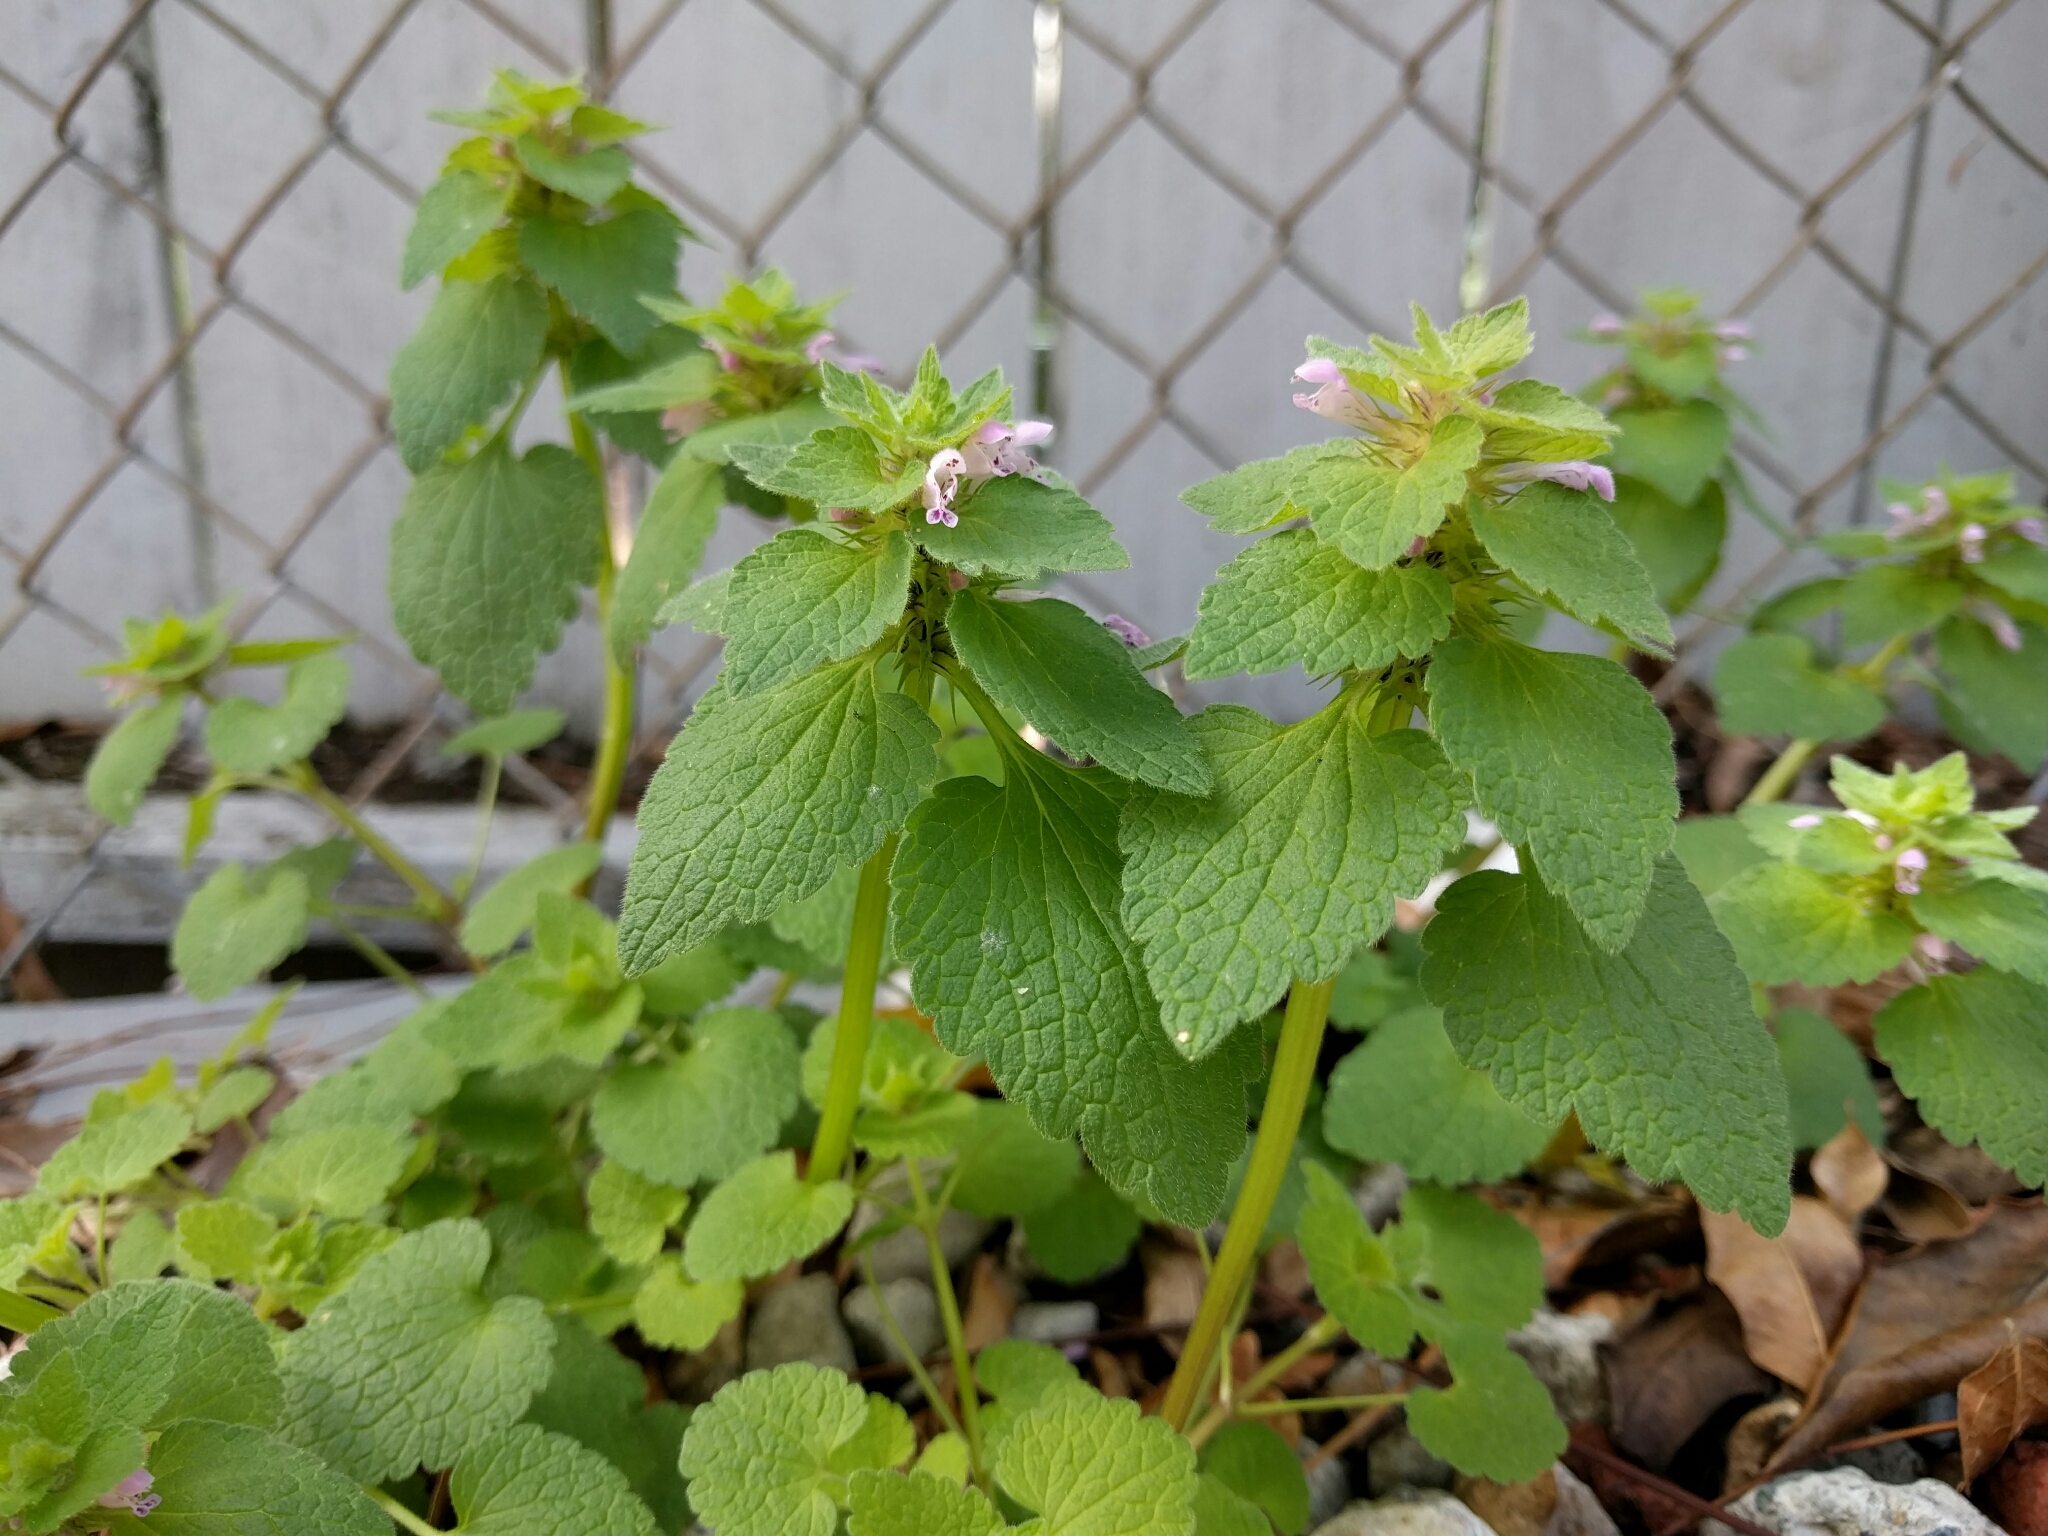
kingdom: Plantae
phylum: Tracheophyta
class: Magnoliopsida
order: Lamiales
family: Lamiaceae
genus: Lamium
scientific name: Lamium purpureum
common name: Red dead-nettle
